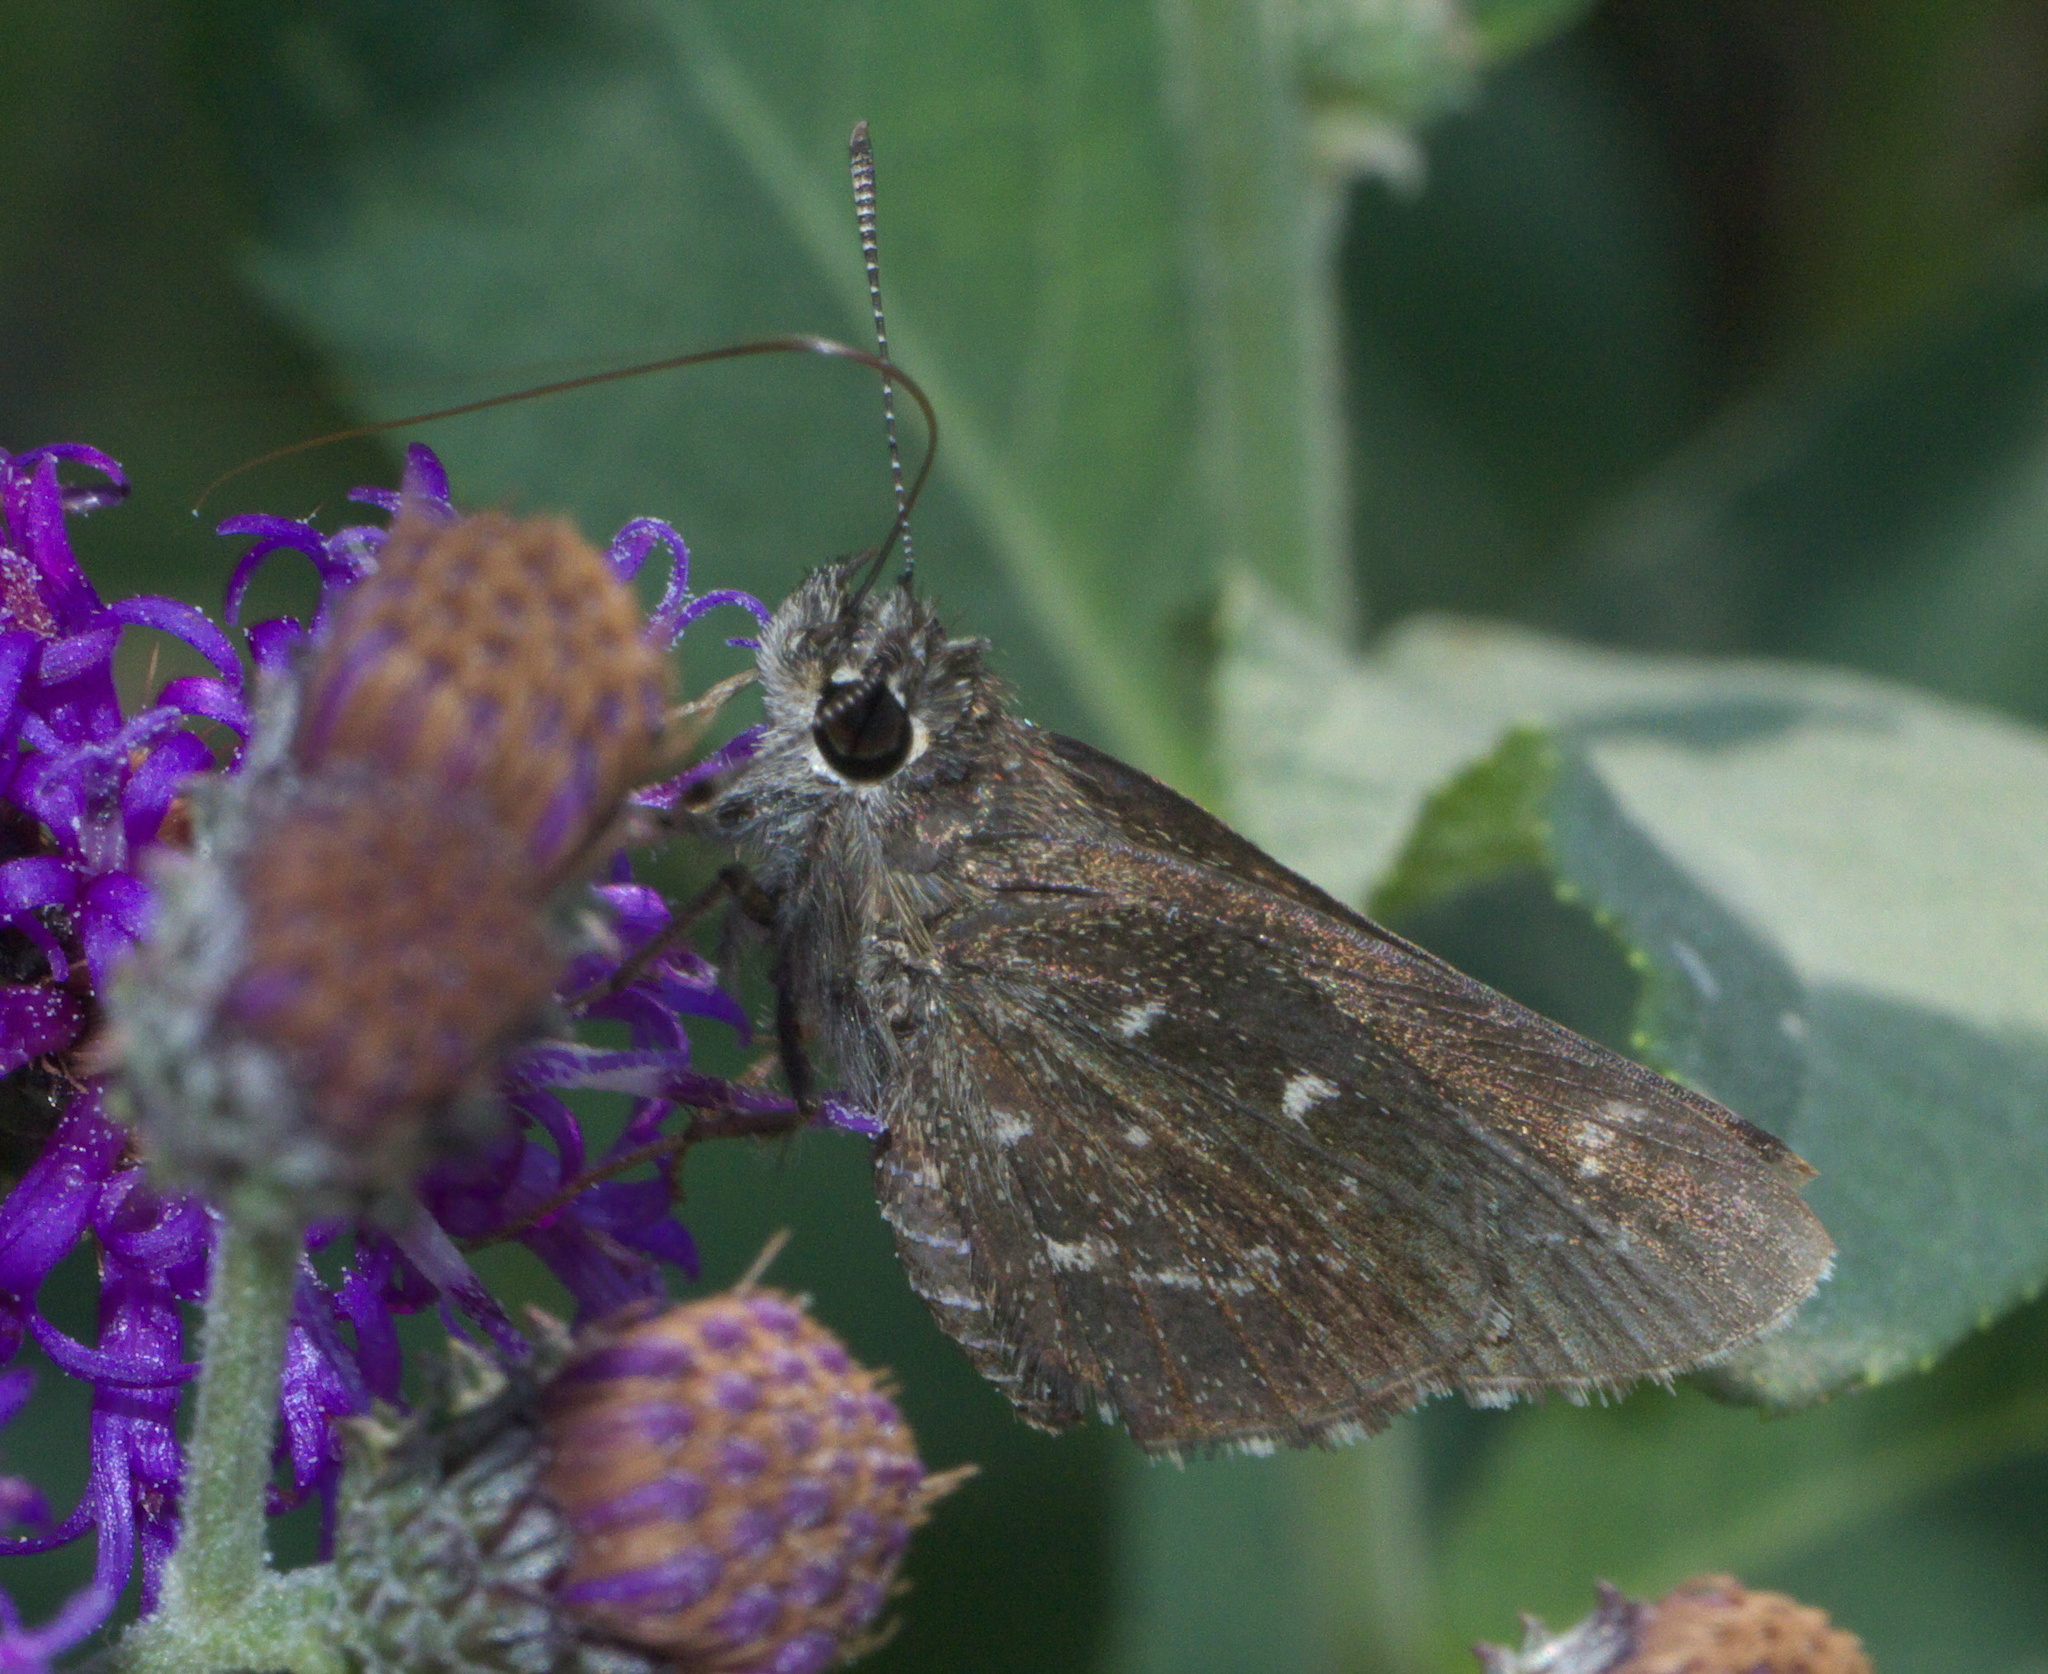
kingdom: Animalia
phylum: Arthropoda
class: Insecta
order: Lepidoptera
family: Hesperiidae
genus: Mastor
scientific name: Mastor celia
